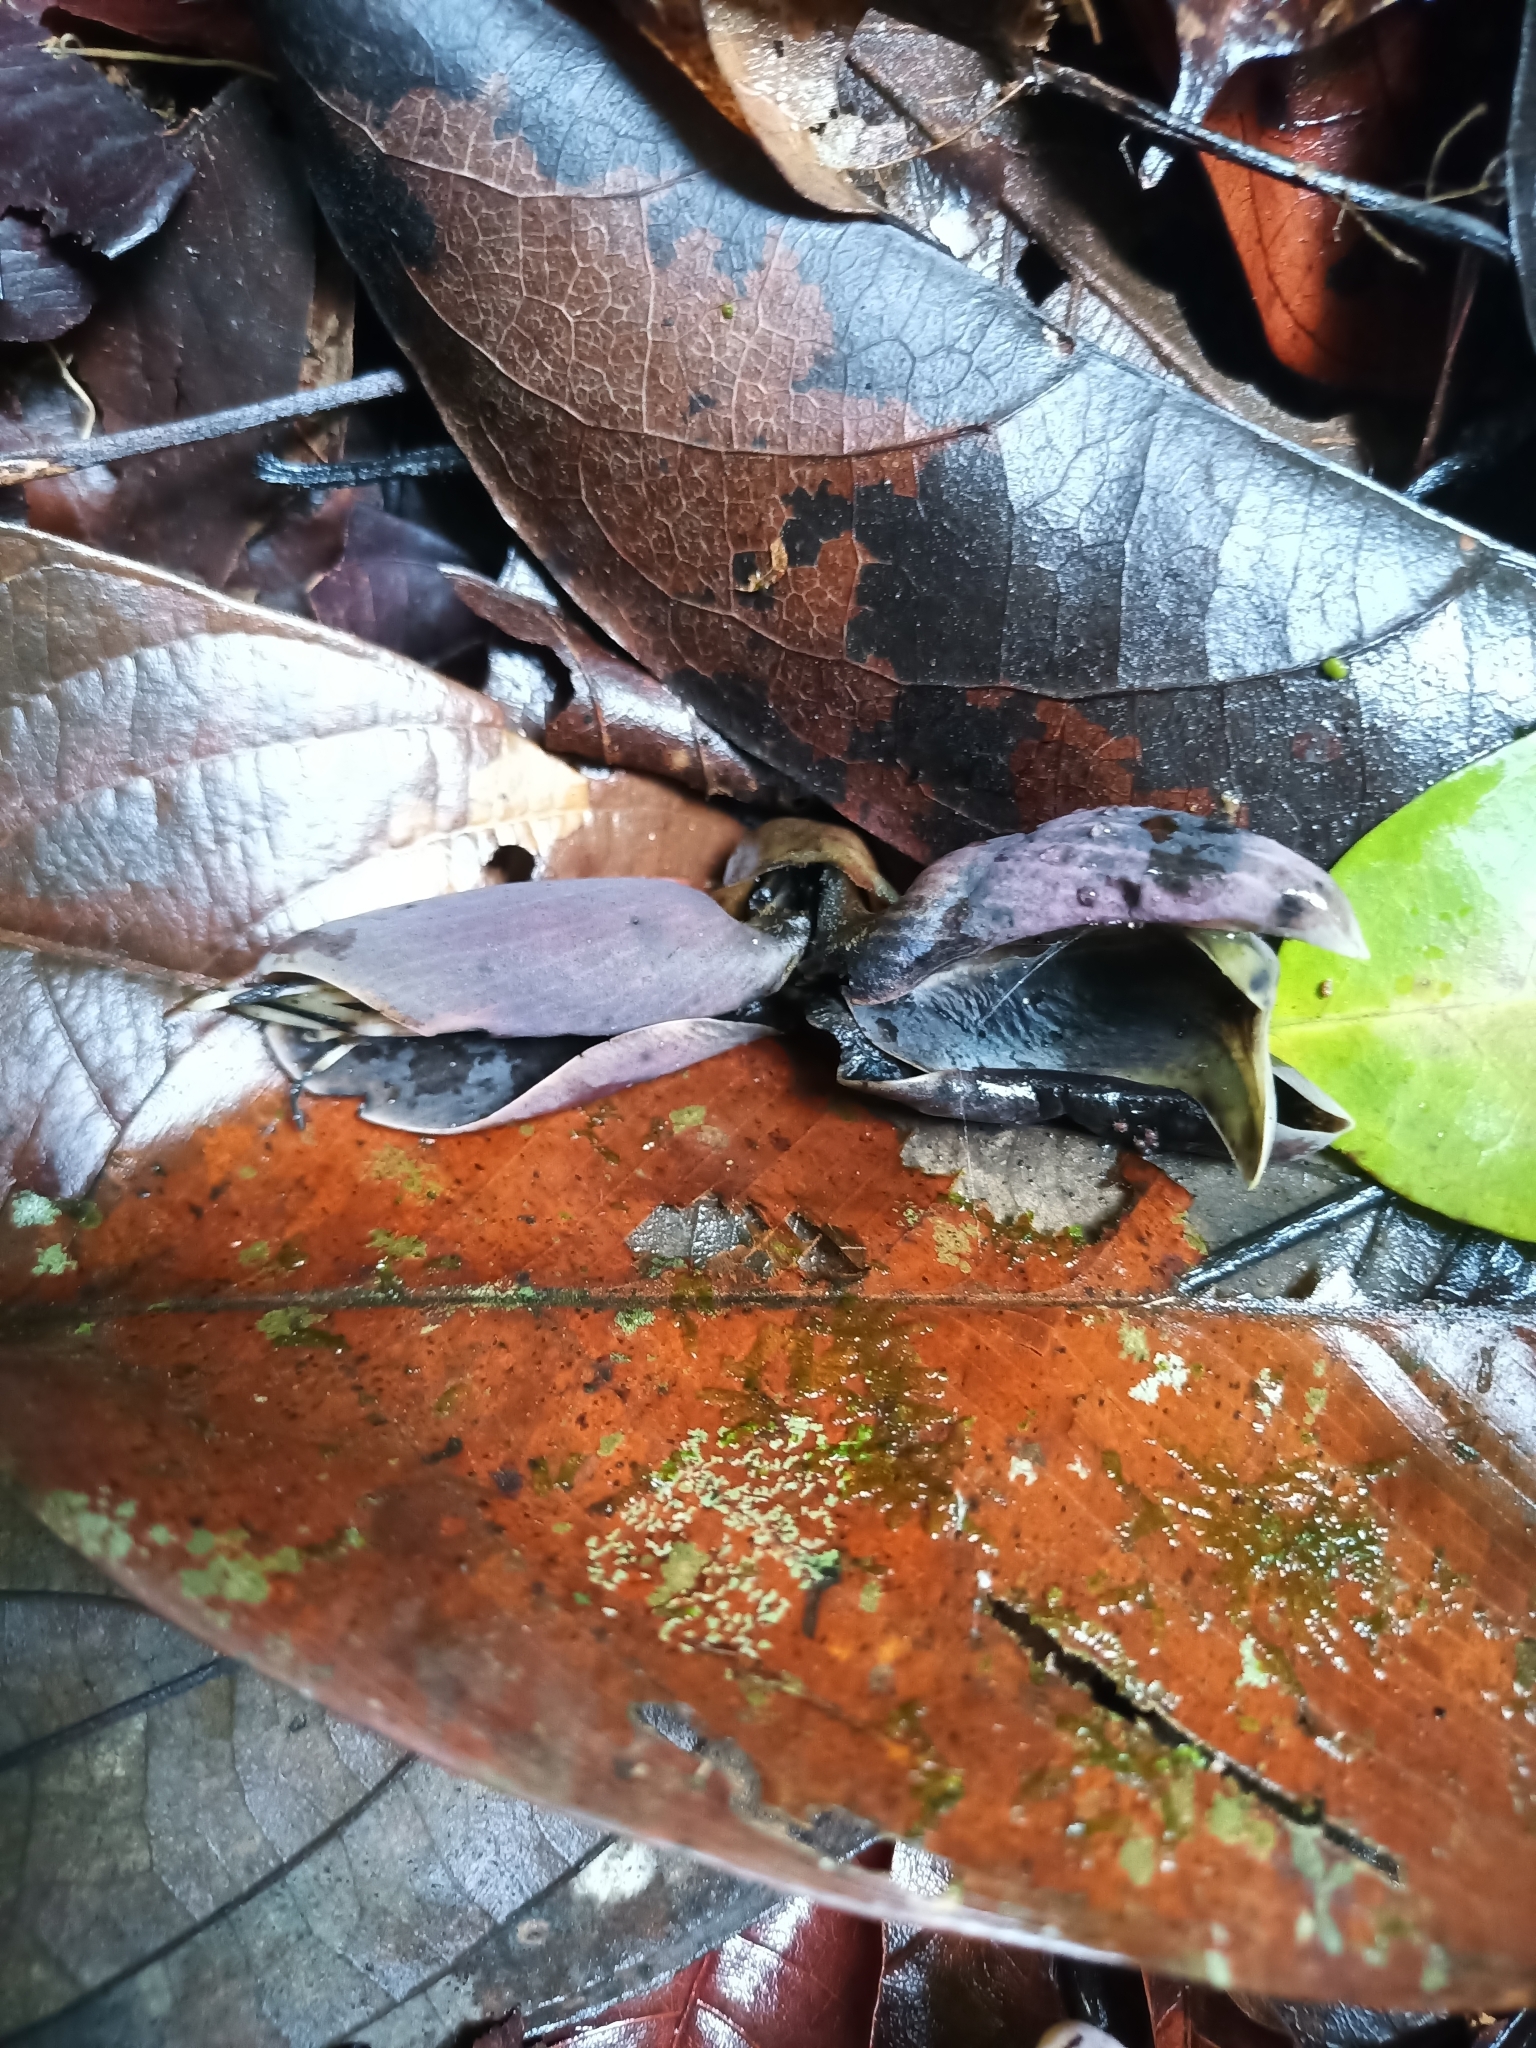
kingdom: Plantae
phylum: Tracheophyta
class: Magnoliopsida
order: Fabales
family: Fabaceae
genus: Mucuna
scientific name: Mucuna urens
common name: Red hamburger bean
